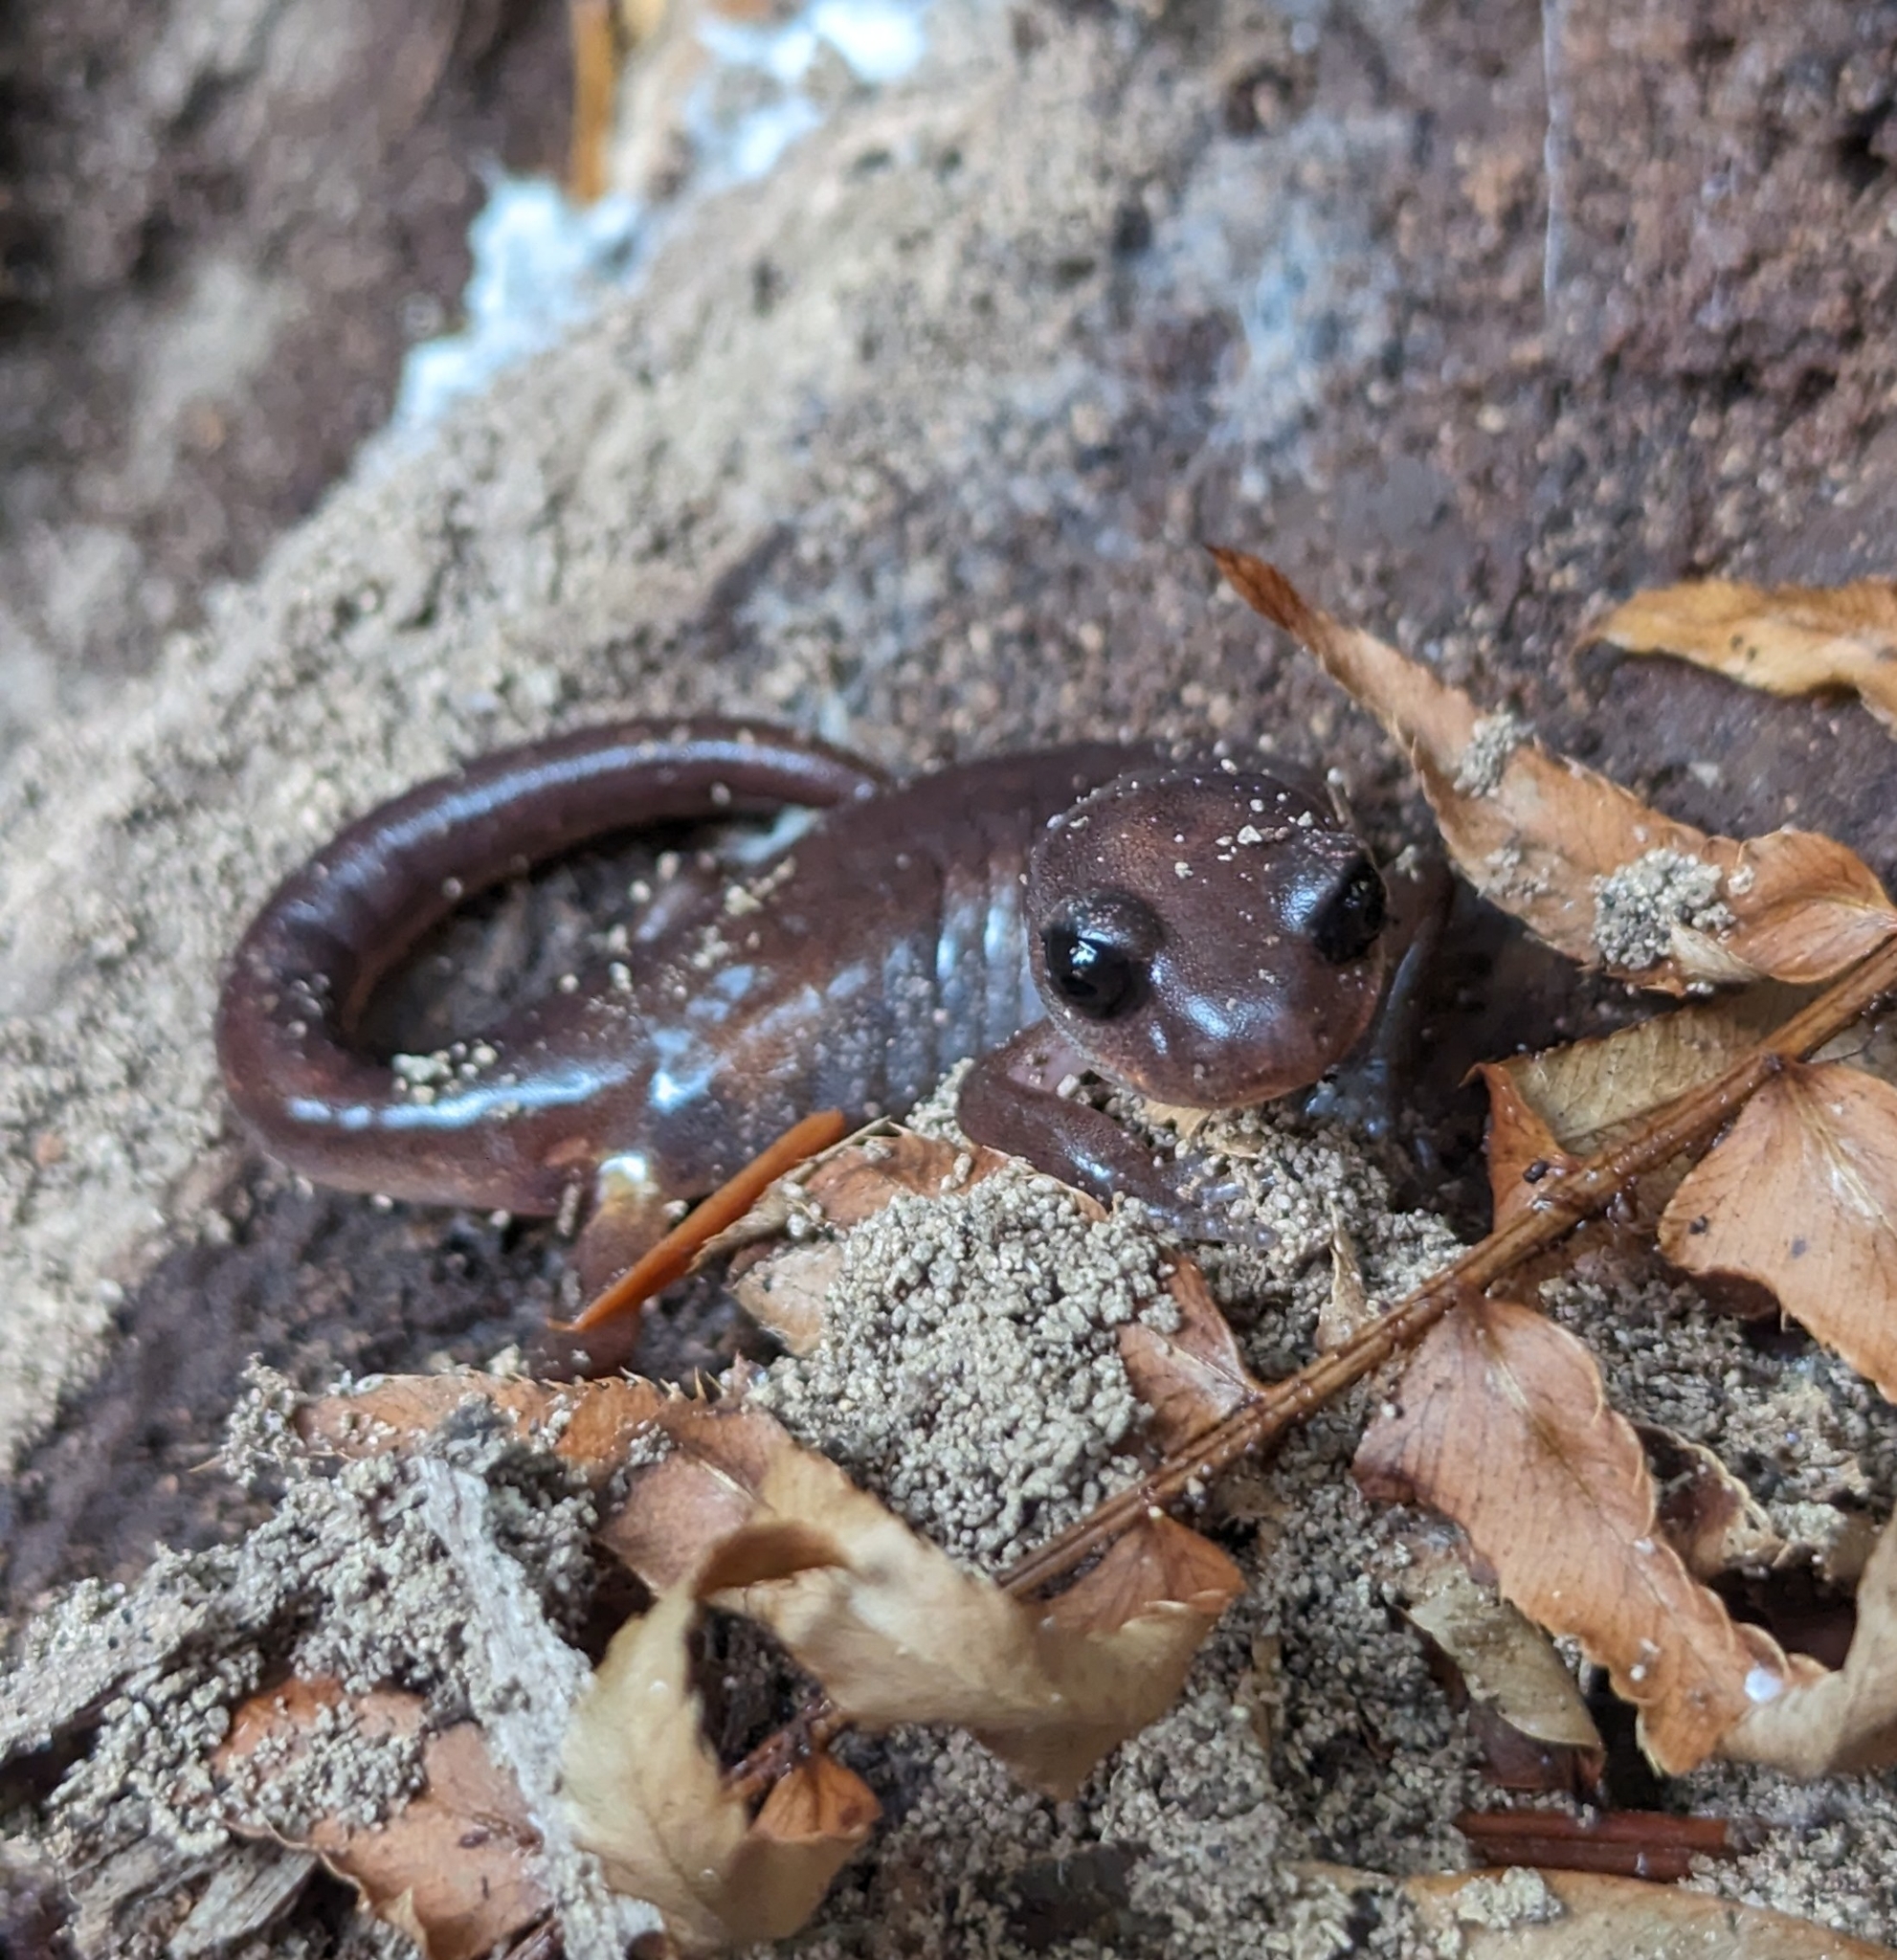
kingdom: Animalia
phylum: Chordata
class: Amphibia
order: Caudata
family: Plethodontidae
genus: Ensatina
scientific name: Ensatina eschscholtzii
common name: Ensatina
